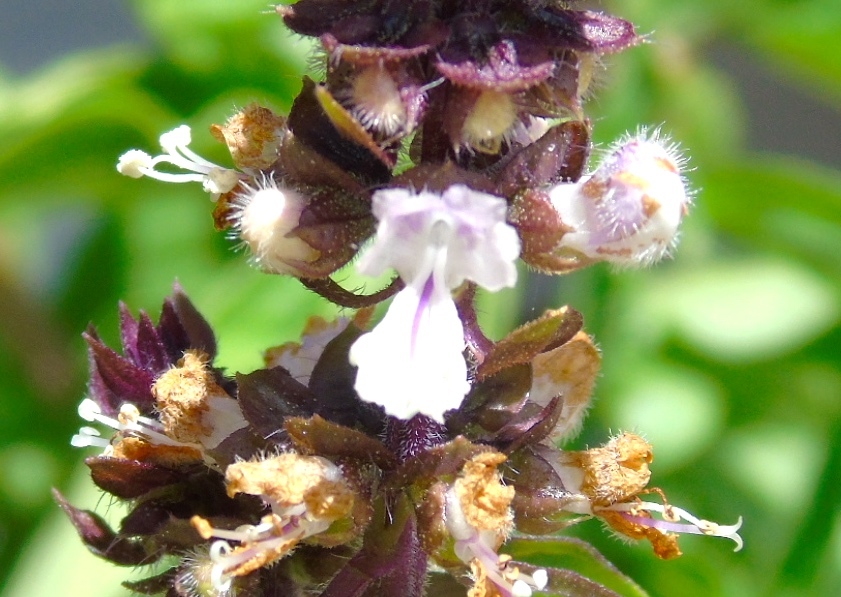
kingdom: Plantae
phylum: Tracheophyta
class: Magnoliopsida
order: Lamiales
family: Lamiaceae
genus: Ocimum
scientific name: Ocimum basilicum
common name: Sweet basil
